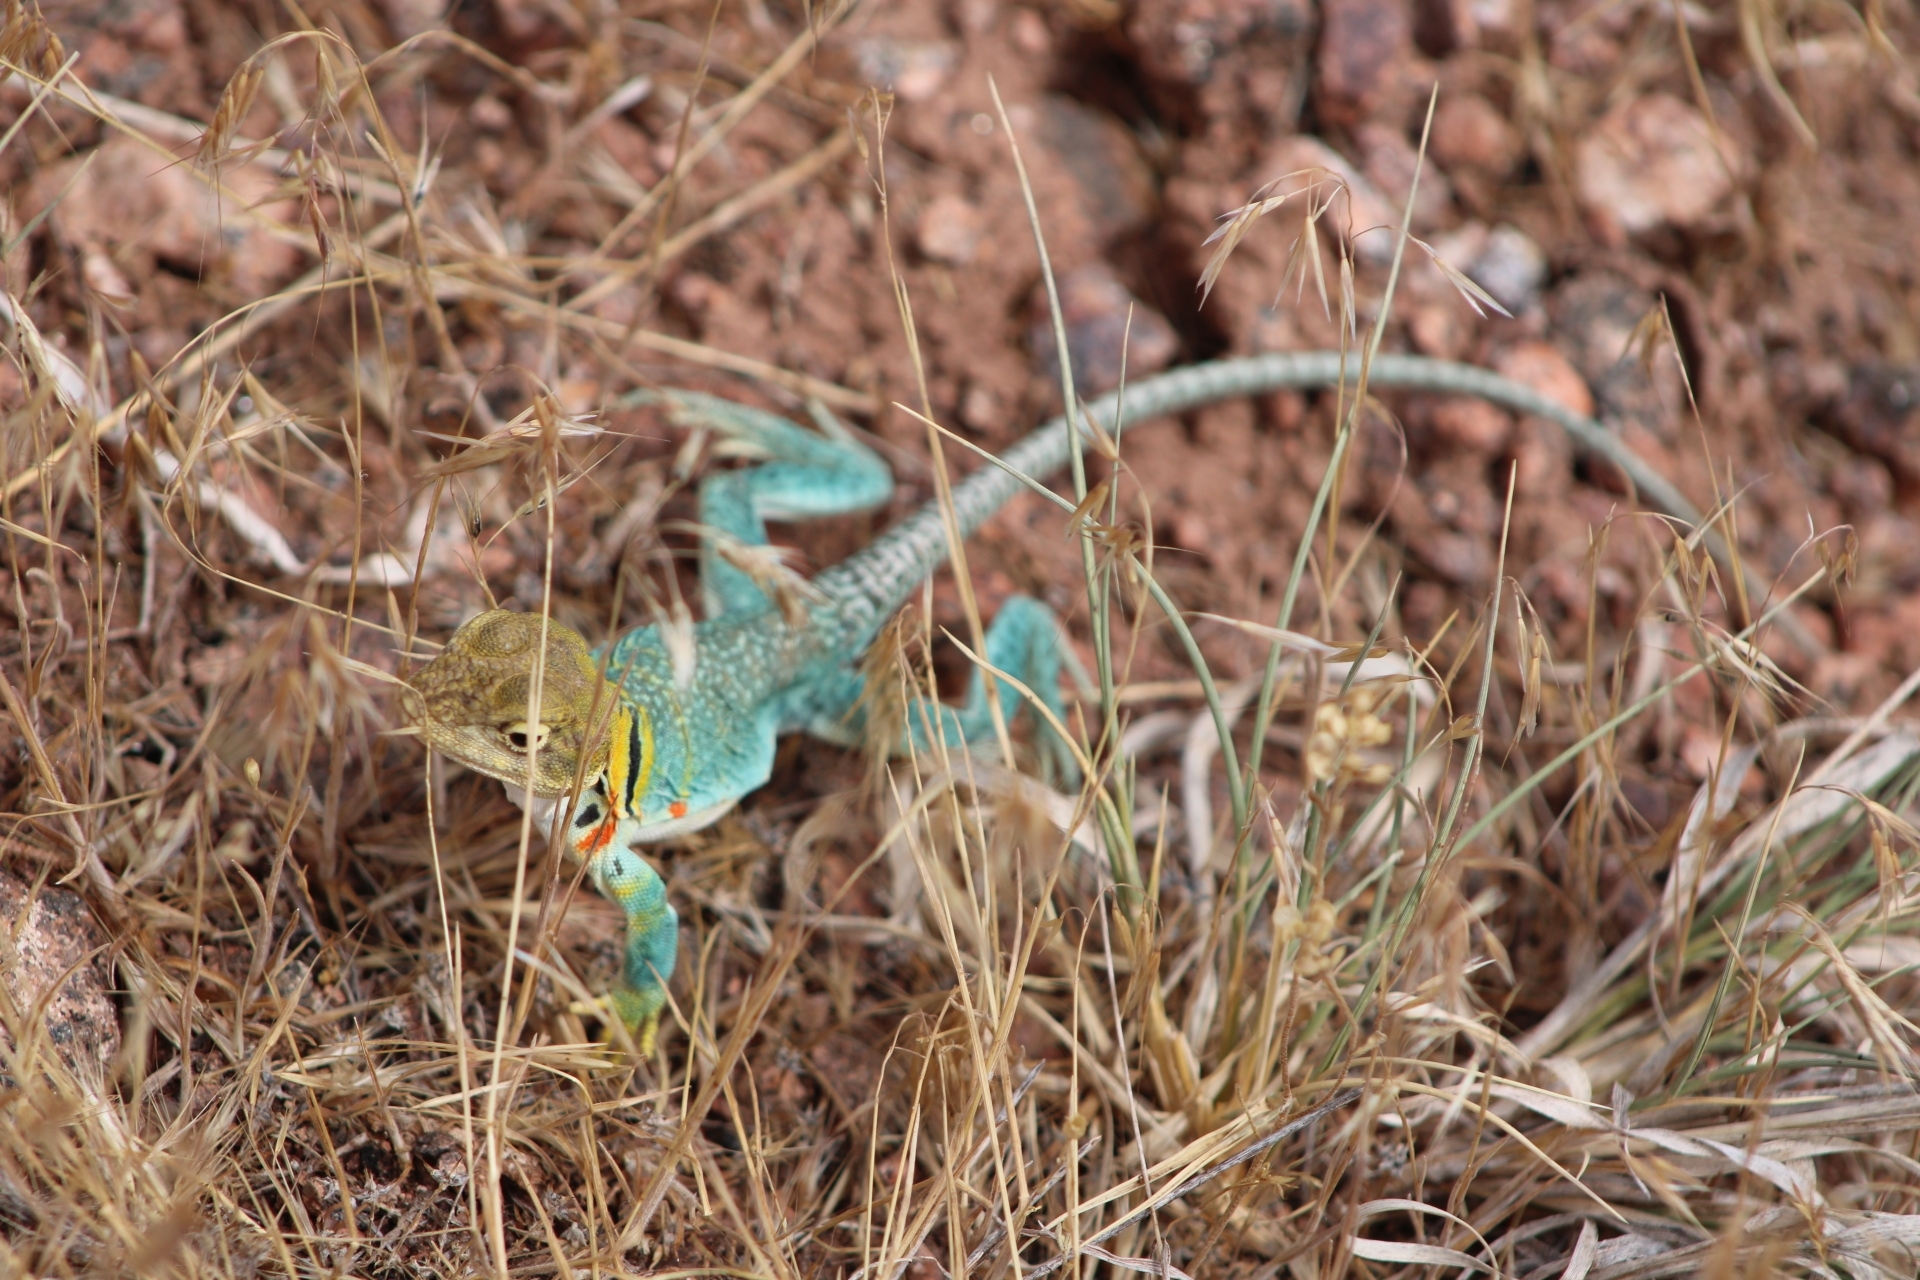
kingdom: Animalia
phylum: Chordata
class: Squamata
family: Crotaphytidae
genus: Crotaphytus
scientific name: Crotaphytus collaris
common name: Collared lizard
